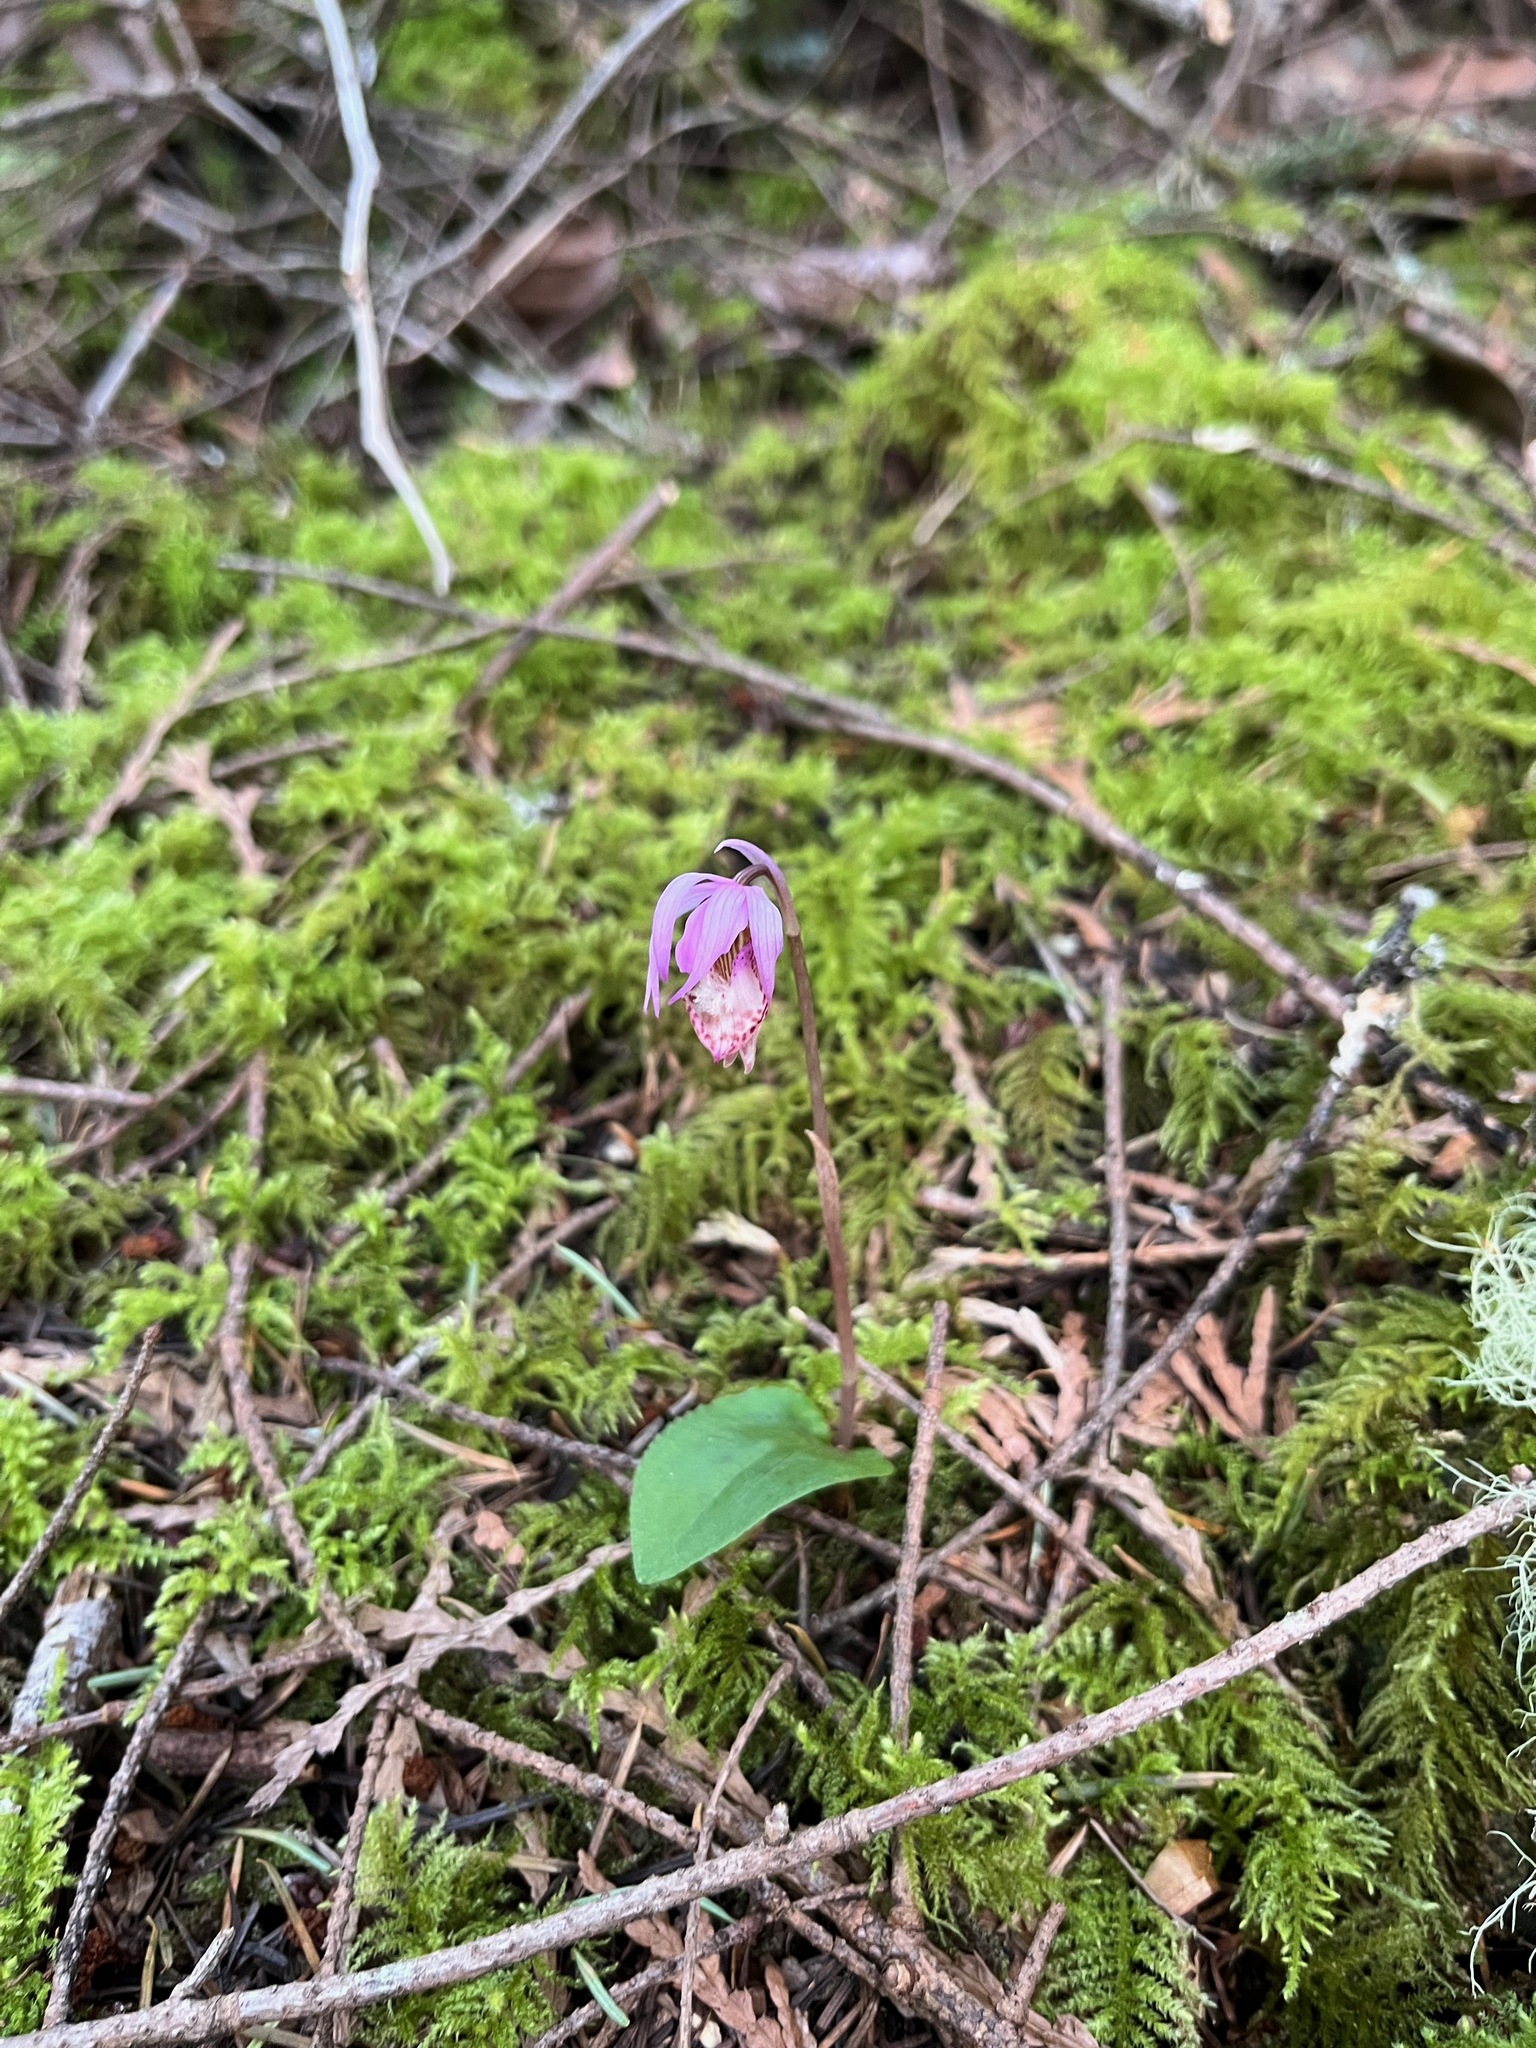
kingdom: Plantae
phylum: Tracheophyta
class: Liliopsida
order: Asparagales
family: Orchidaceae
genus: Calypso
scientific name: Calypso bulbosa
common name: Calypso
